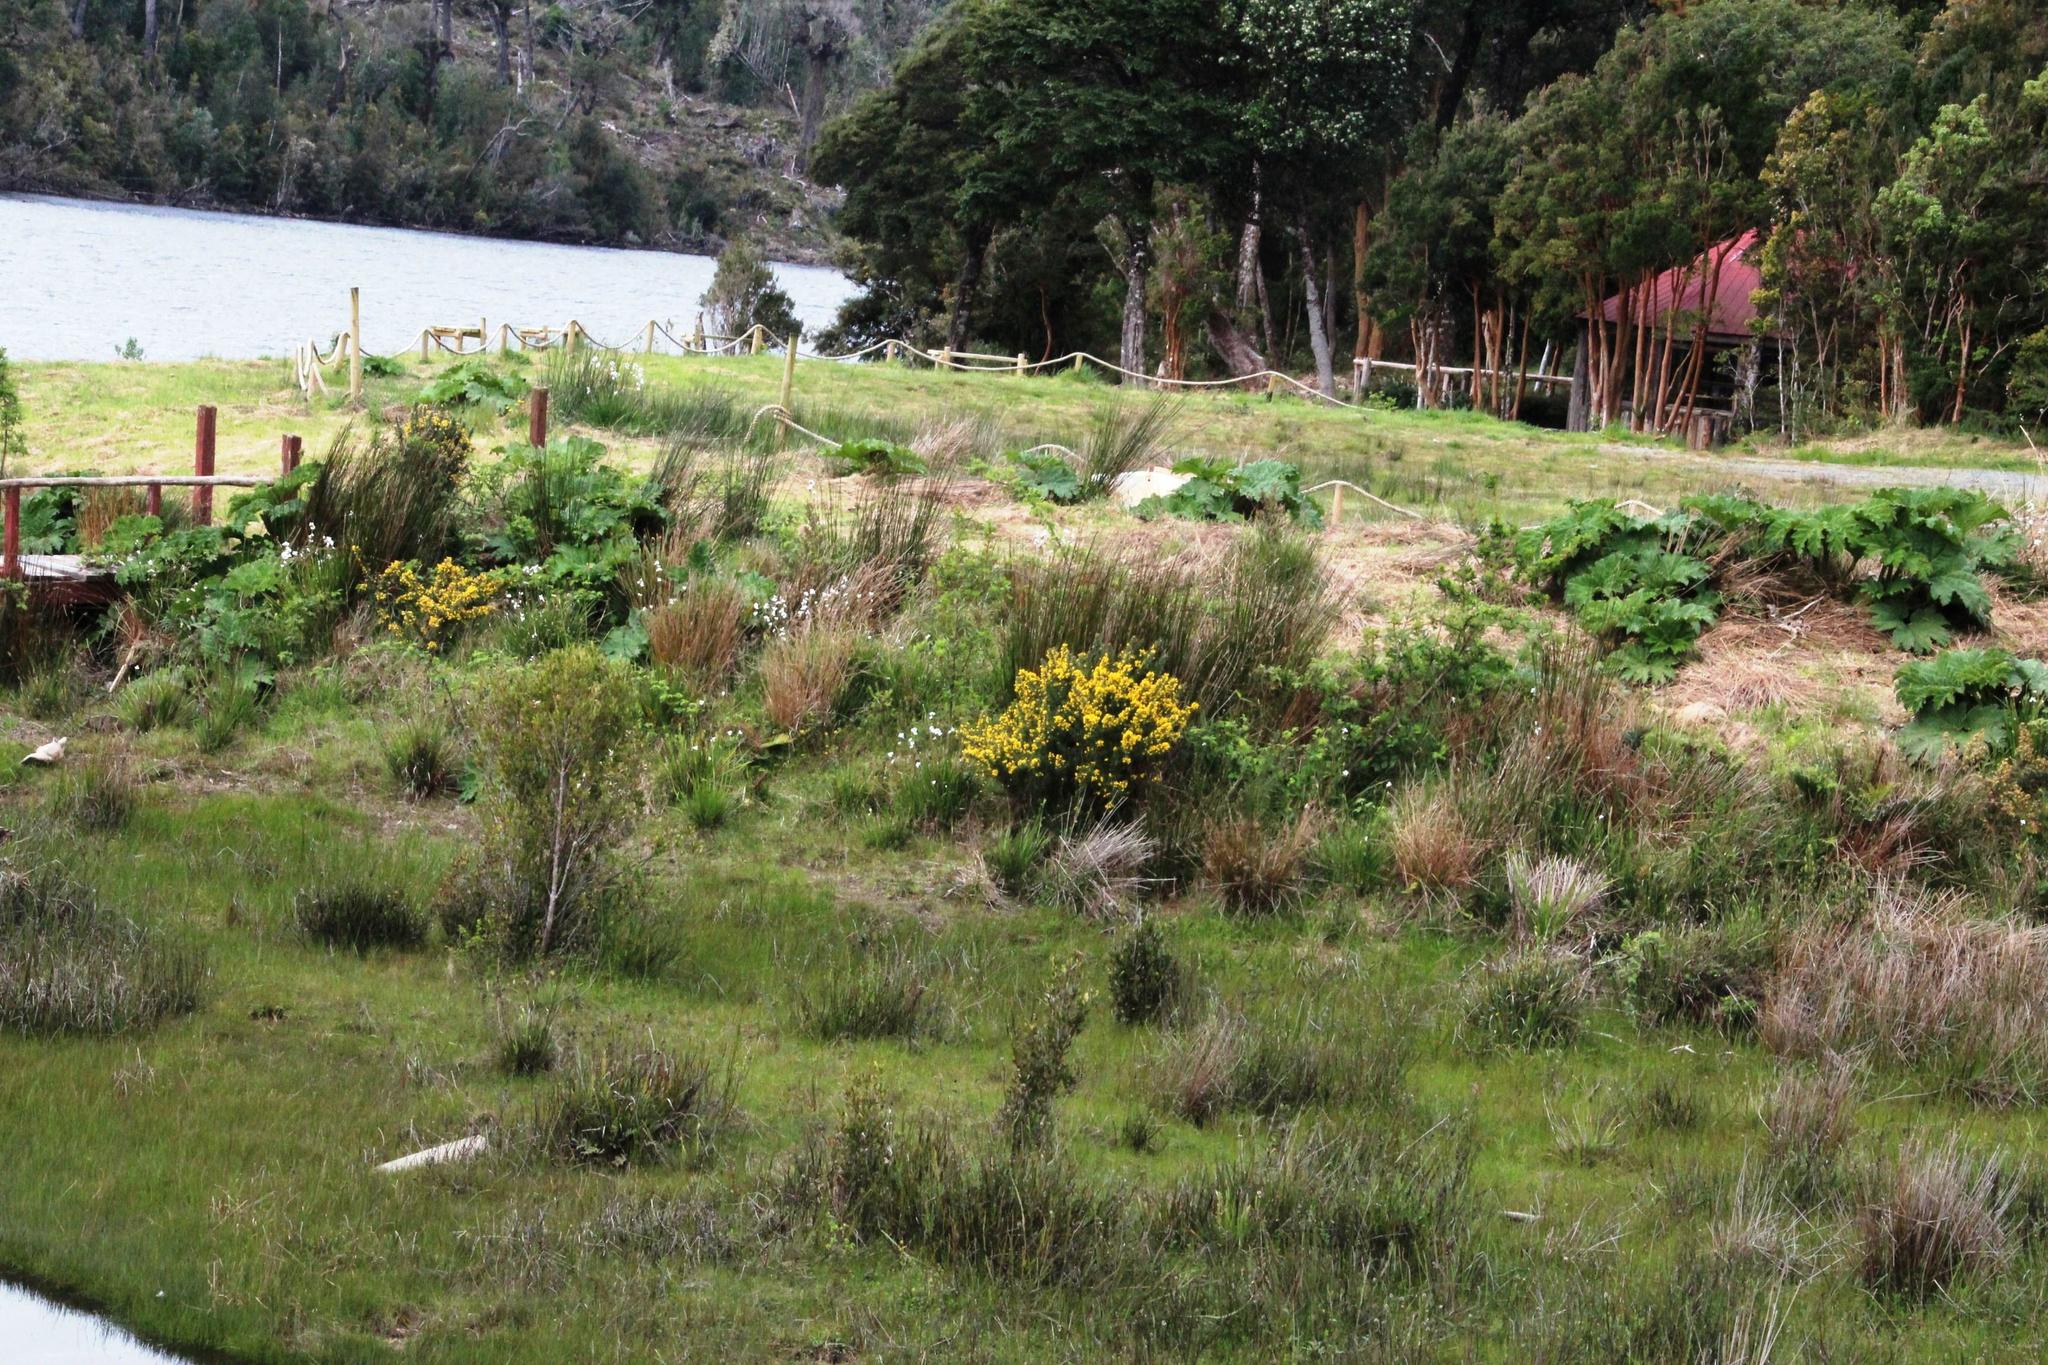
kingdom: Plantae
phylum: Tracheophyta
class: Magnoliopsida
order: Fabales
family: Fabaceae
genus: Ulex
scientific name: Ulex europaeus
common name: Common gorse
